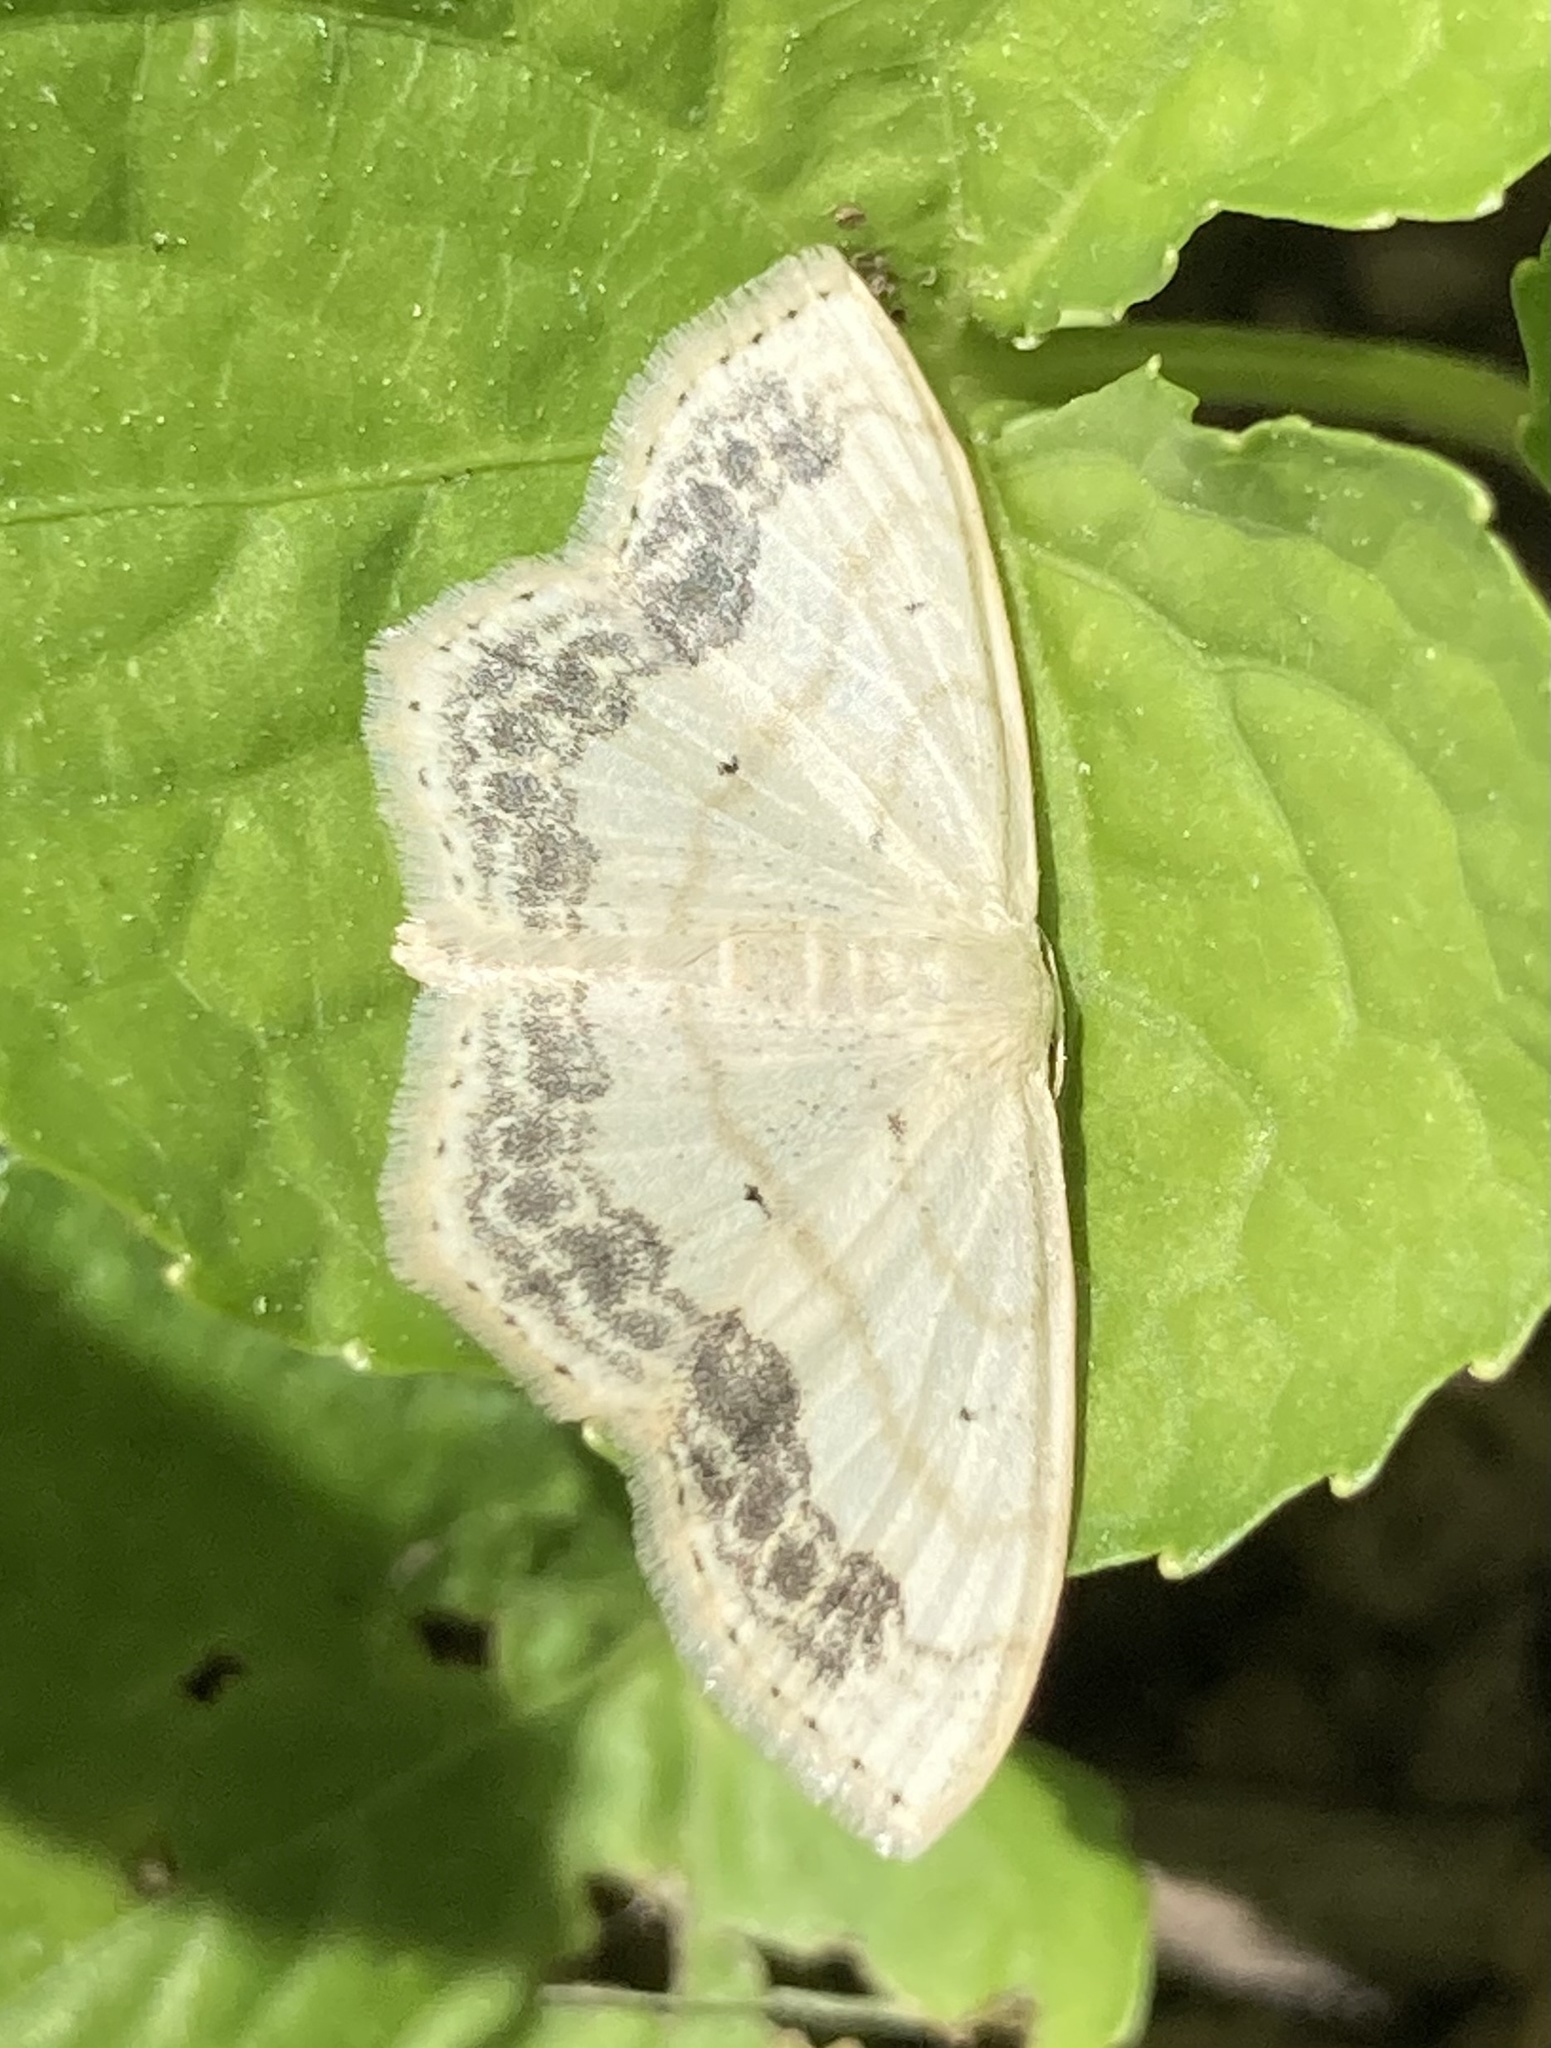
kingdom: Animalia
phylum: Arthropoda
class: Insecta
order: Lepidoptera
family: Geometridae
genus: Scopula
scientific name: Scopula limboundata
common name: Large lace border
